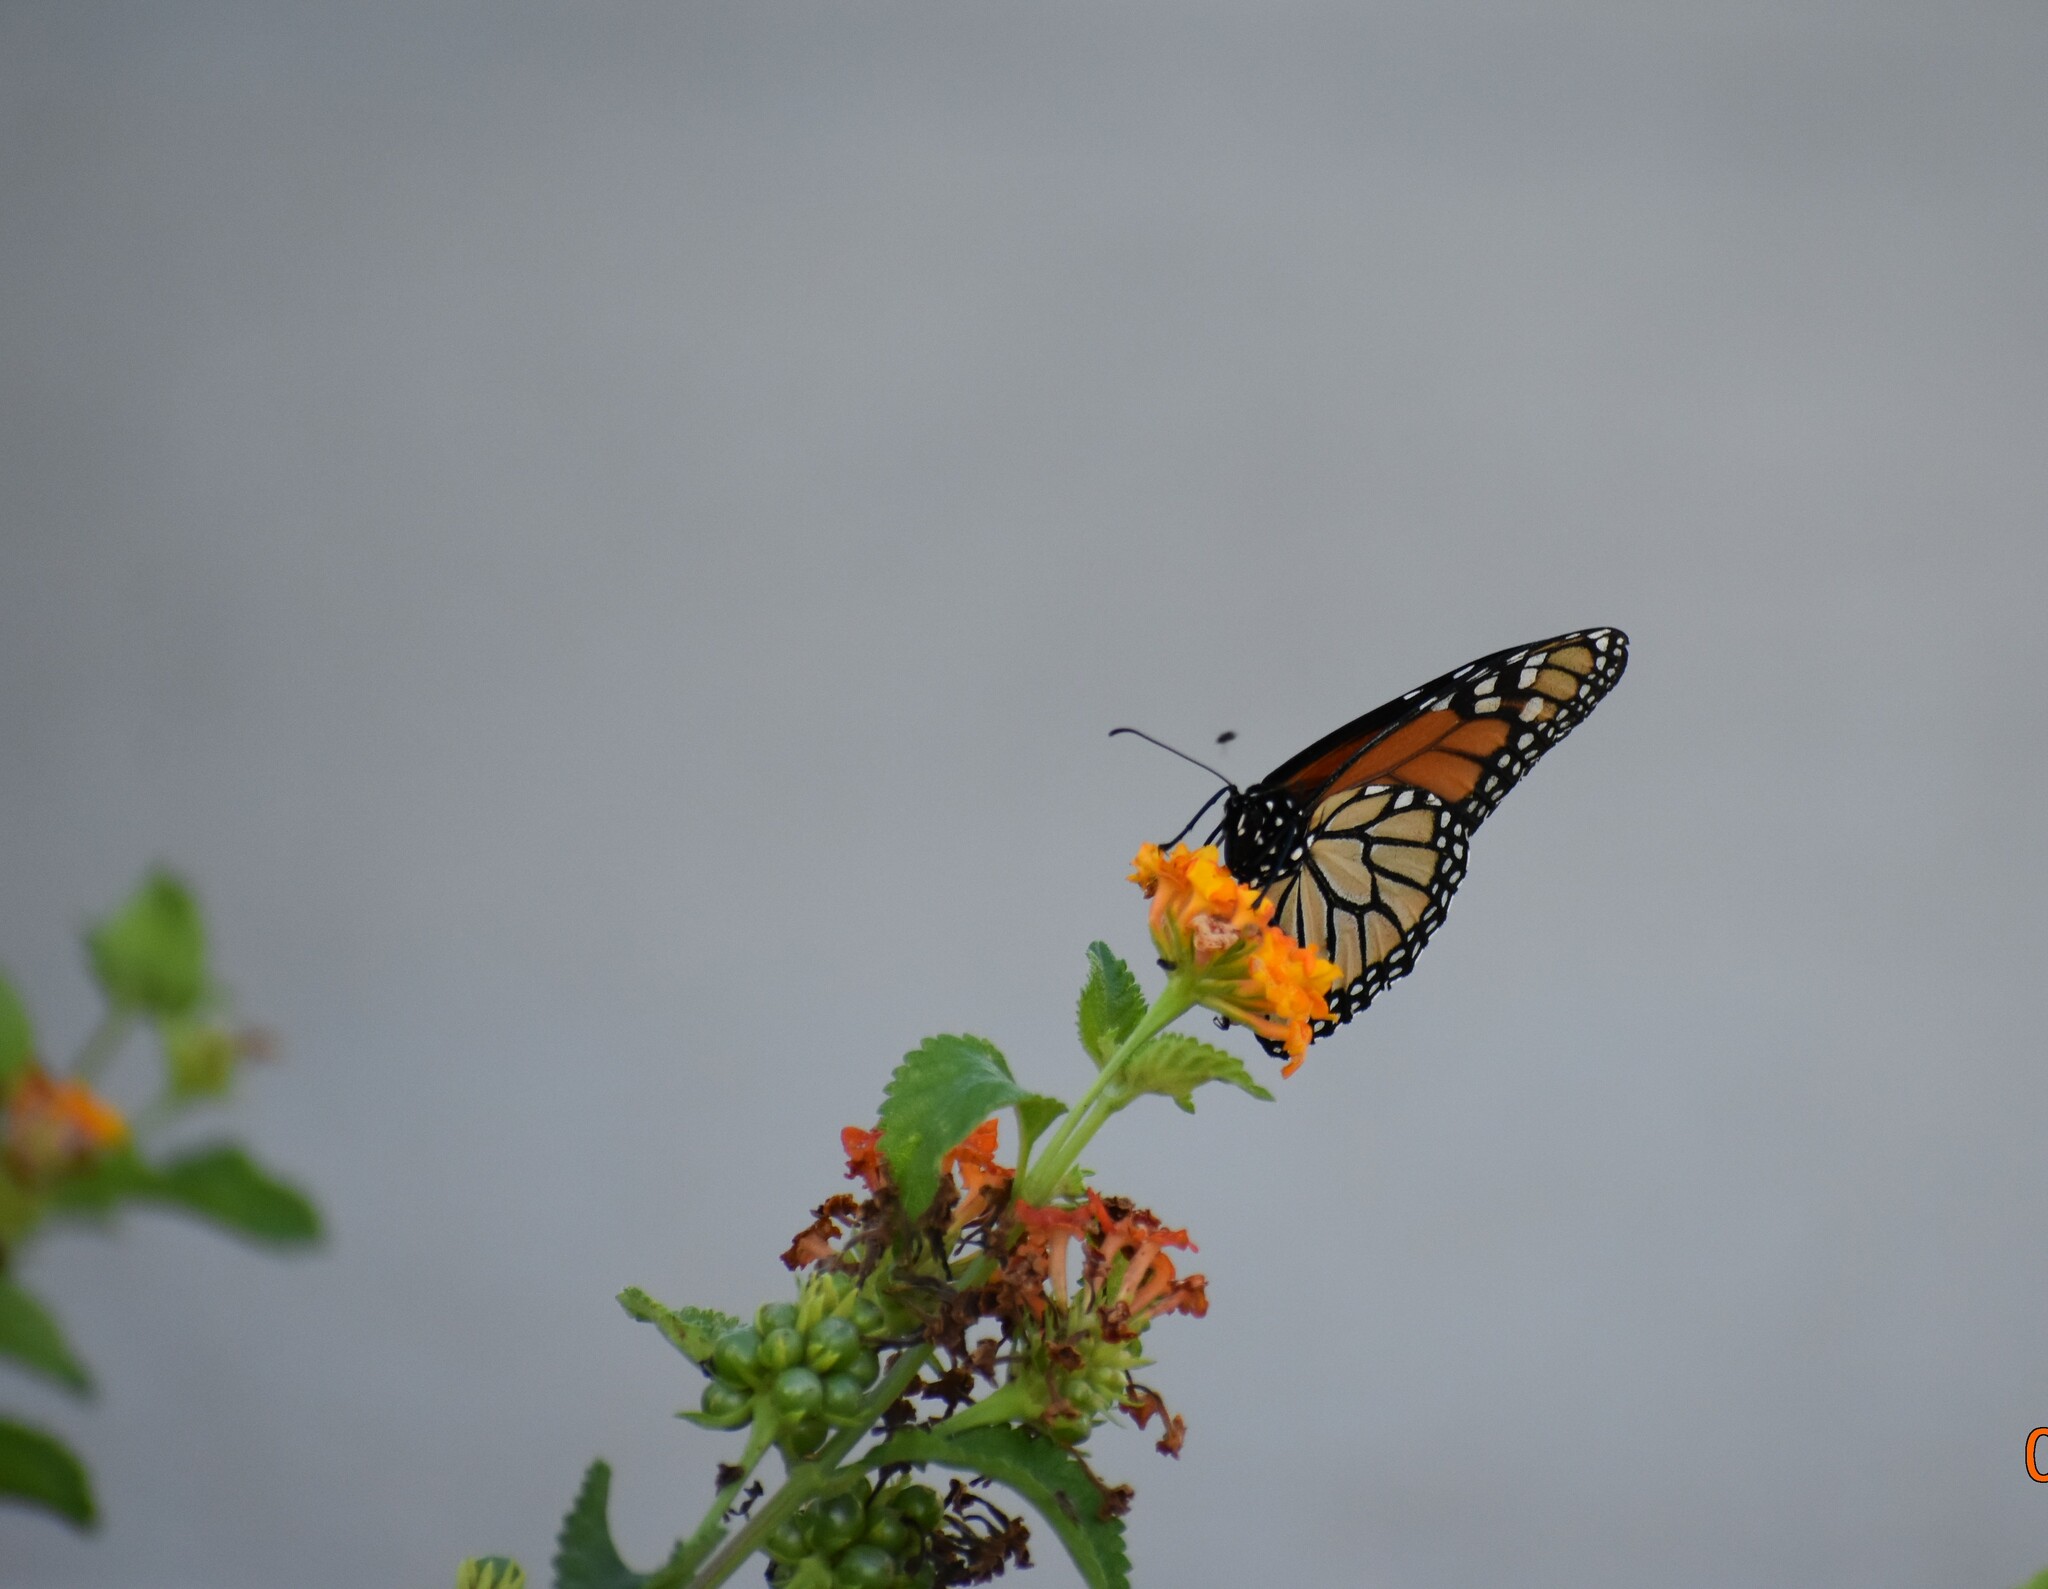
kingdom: Animalia
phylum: Arthropoda
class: Insecta
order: Lepidoptera
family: Nymphalidae
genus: Danaus
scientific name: Danaus plexippus
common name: Monarch
